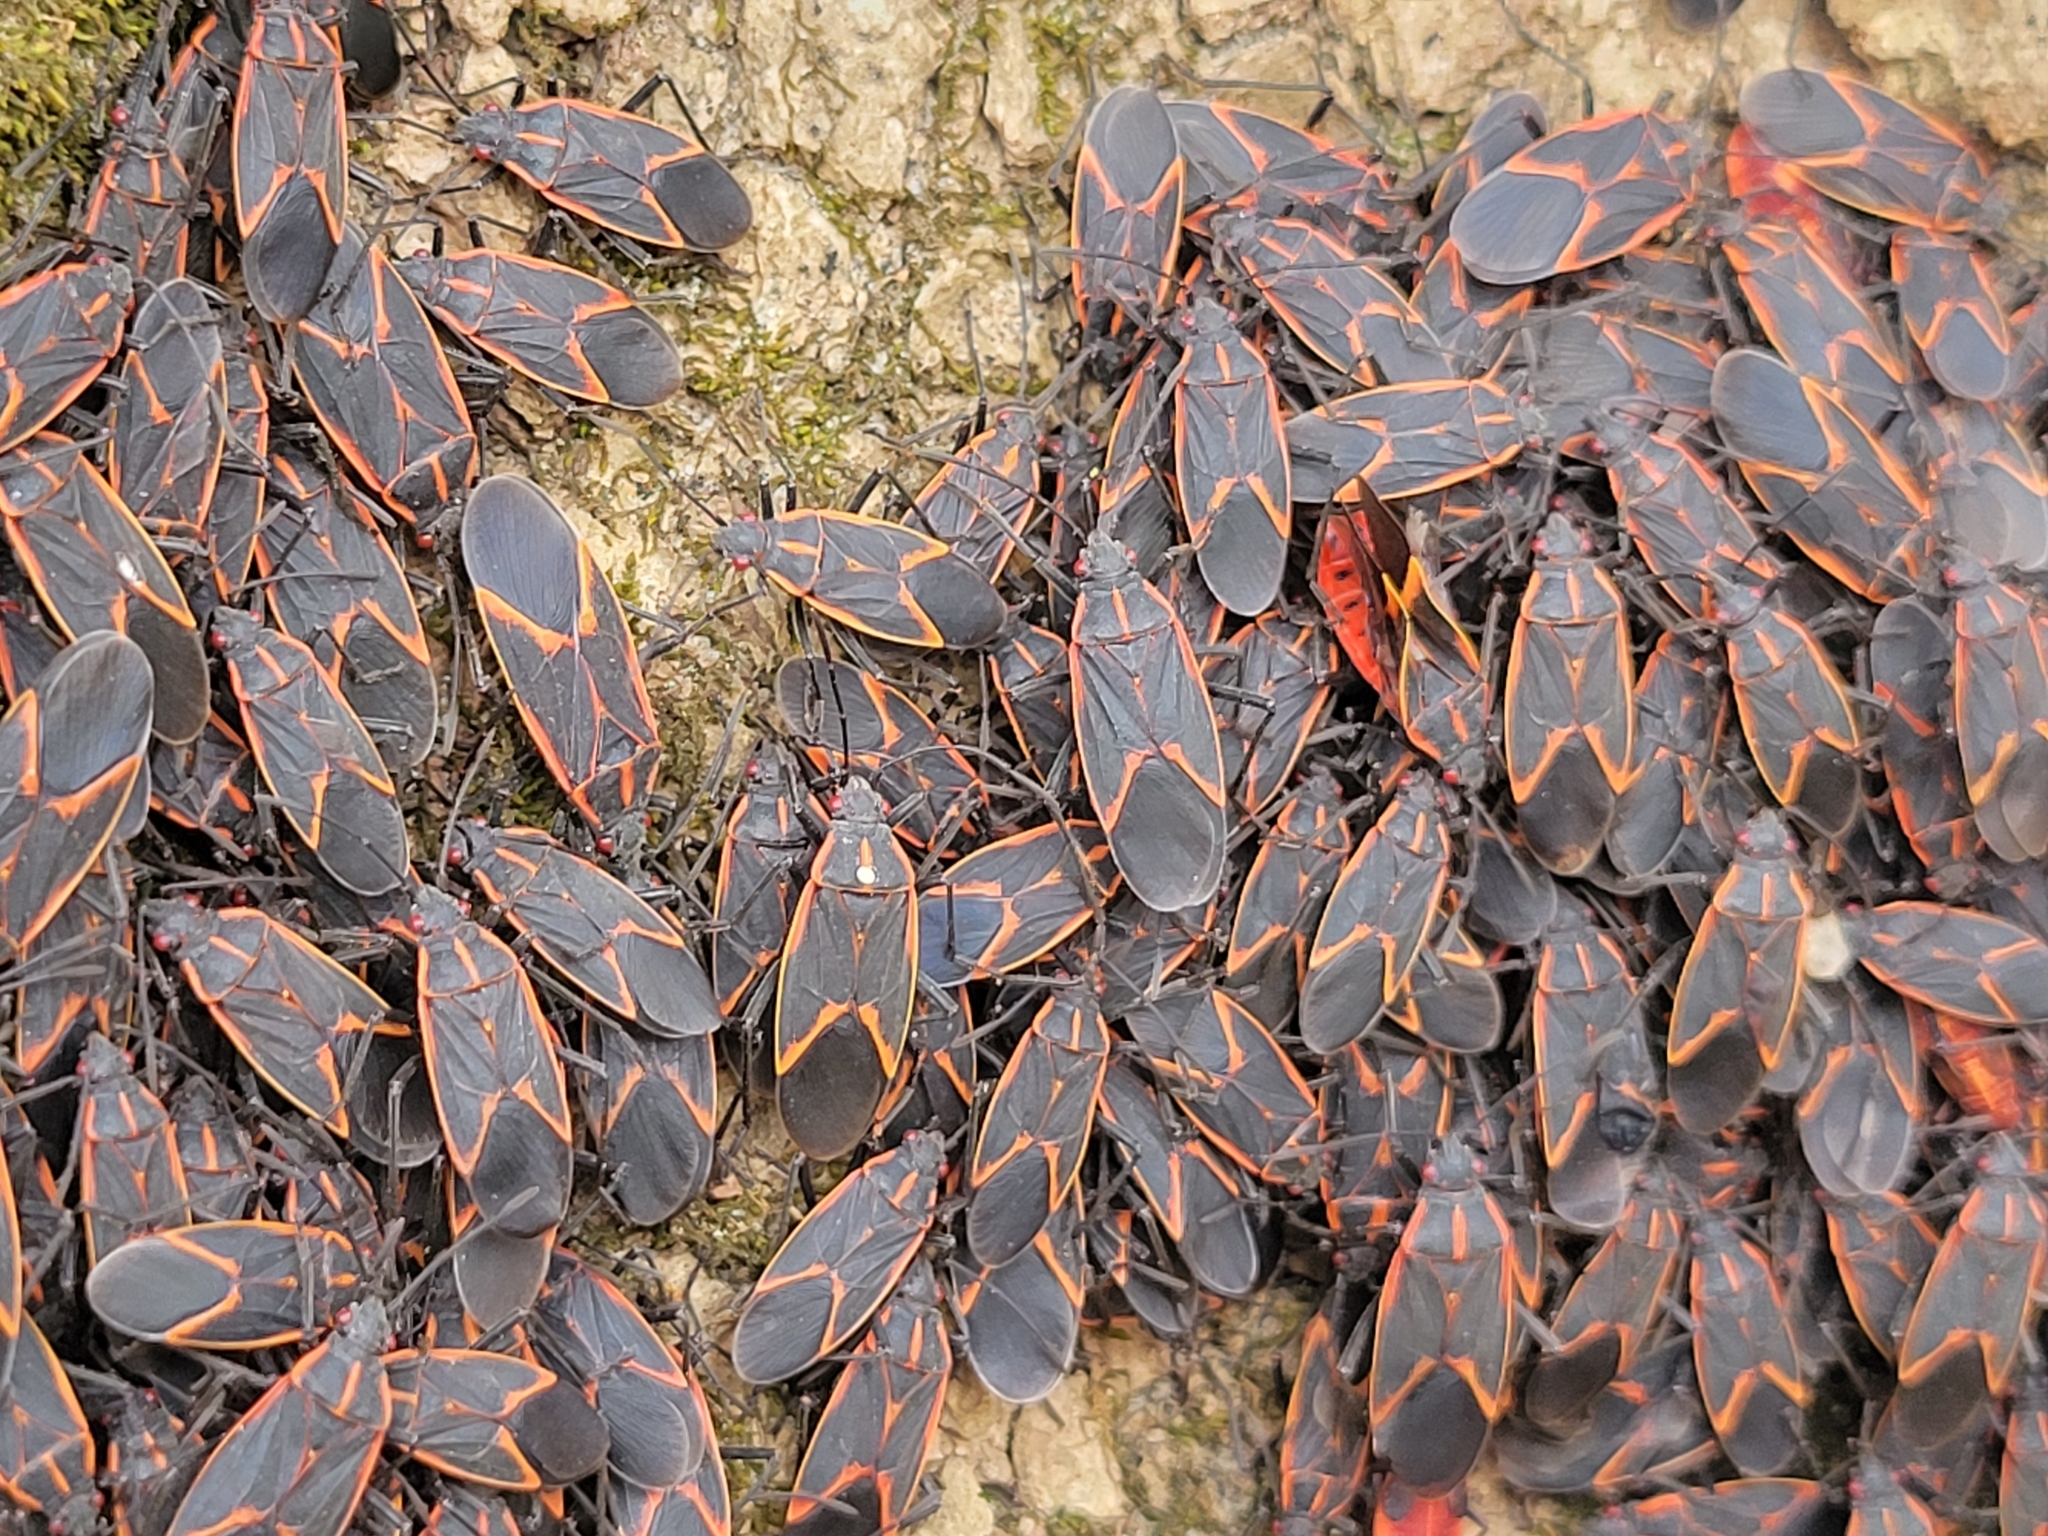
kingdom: Animalia
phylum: Arthropoda
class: Insecta
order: Hemiptera
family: Rhopalidae
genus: Boisea
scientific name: Boisea trivittata
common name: Boxelder bug
